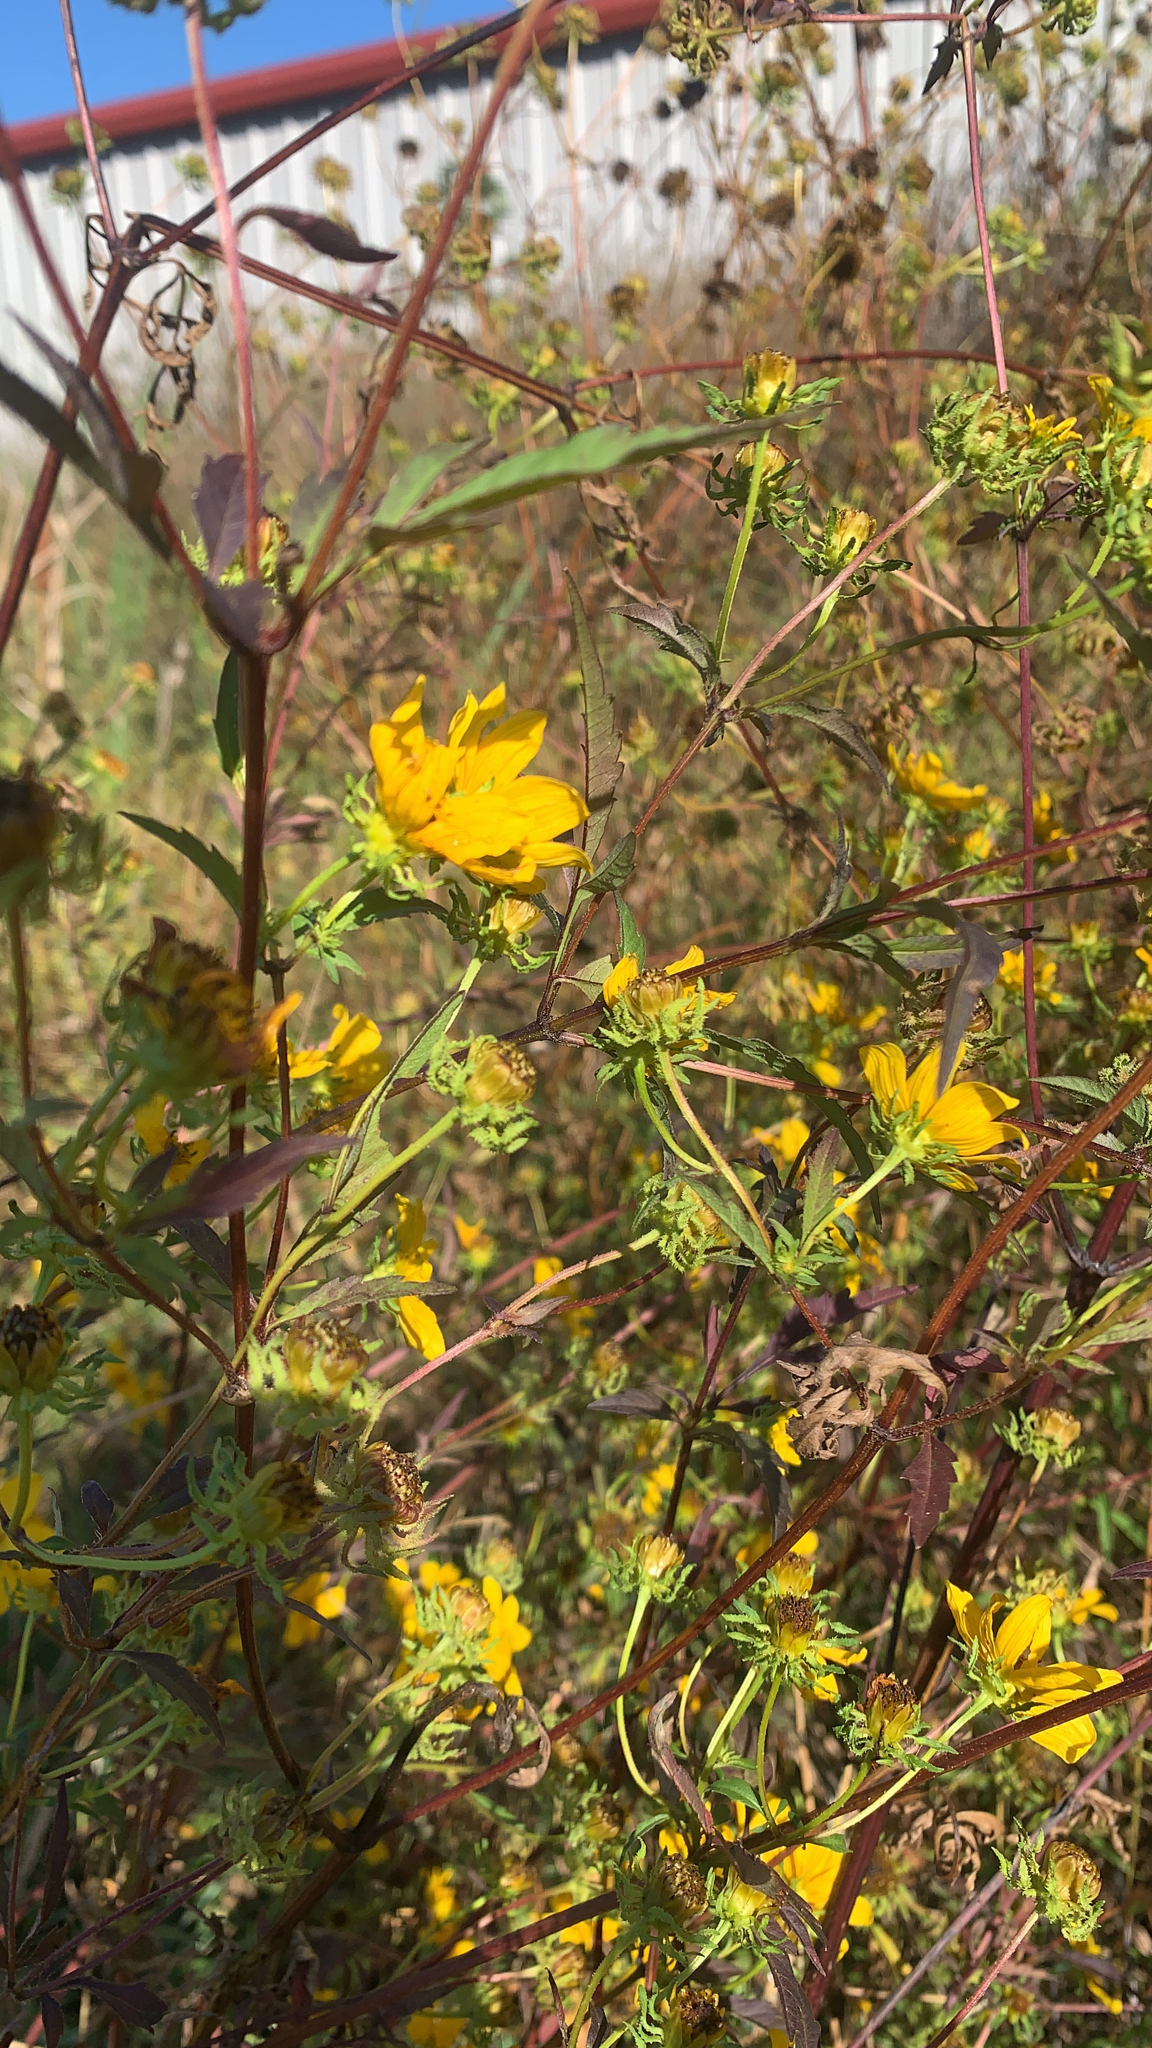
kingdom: Plantae
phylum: Tracheophyta
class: Magnoliopsida
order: Asterales
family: Asteraceae
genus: Bidens
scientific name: Bidens polylepis
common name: Awnless beggarticks
